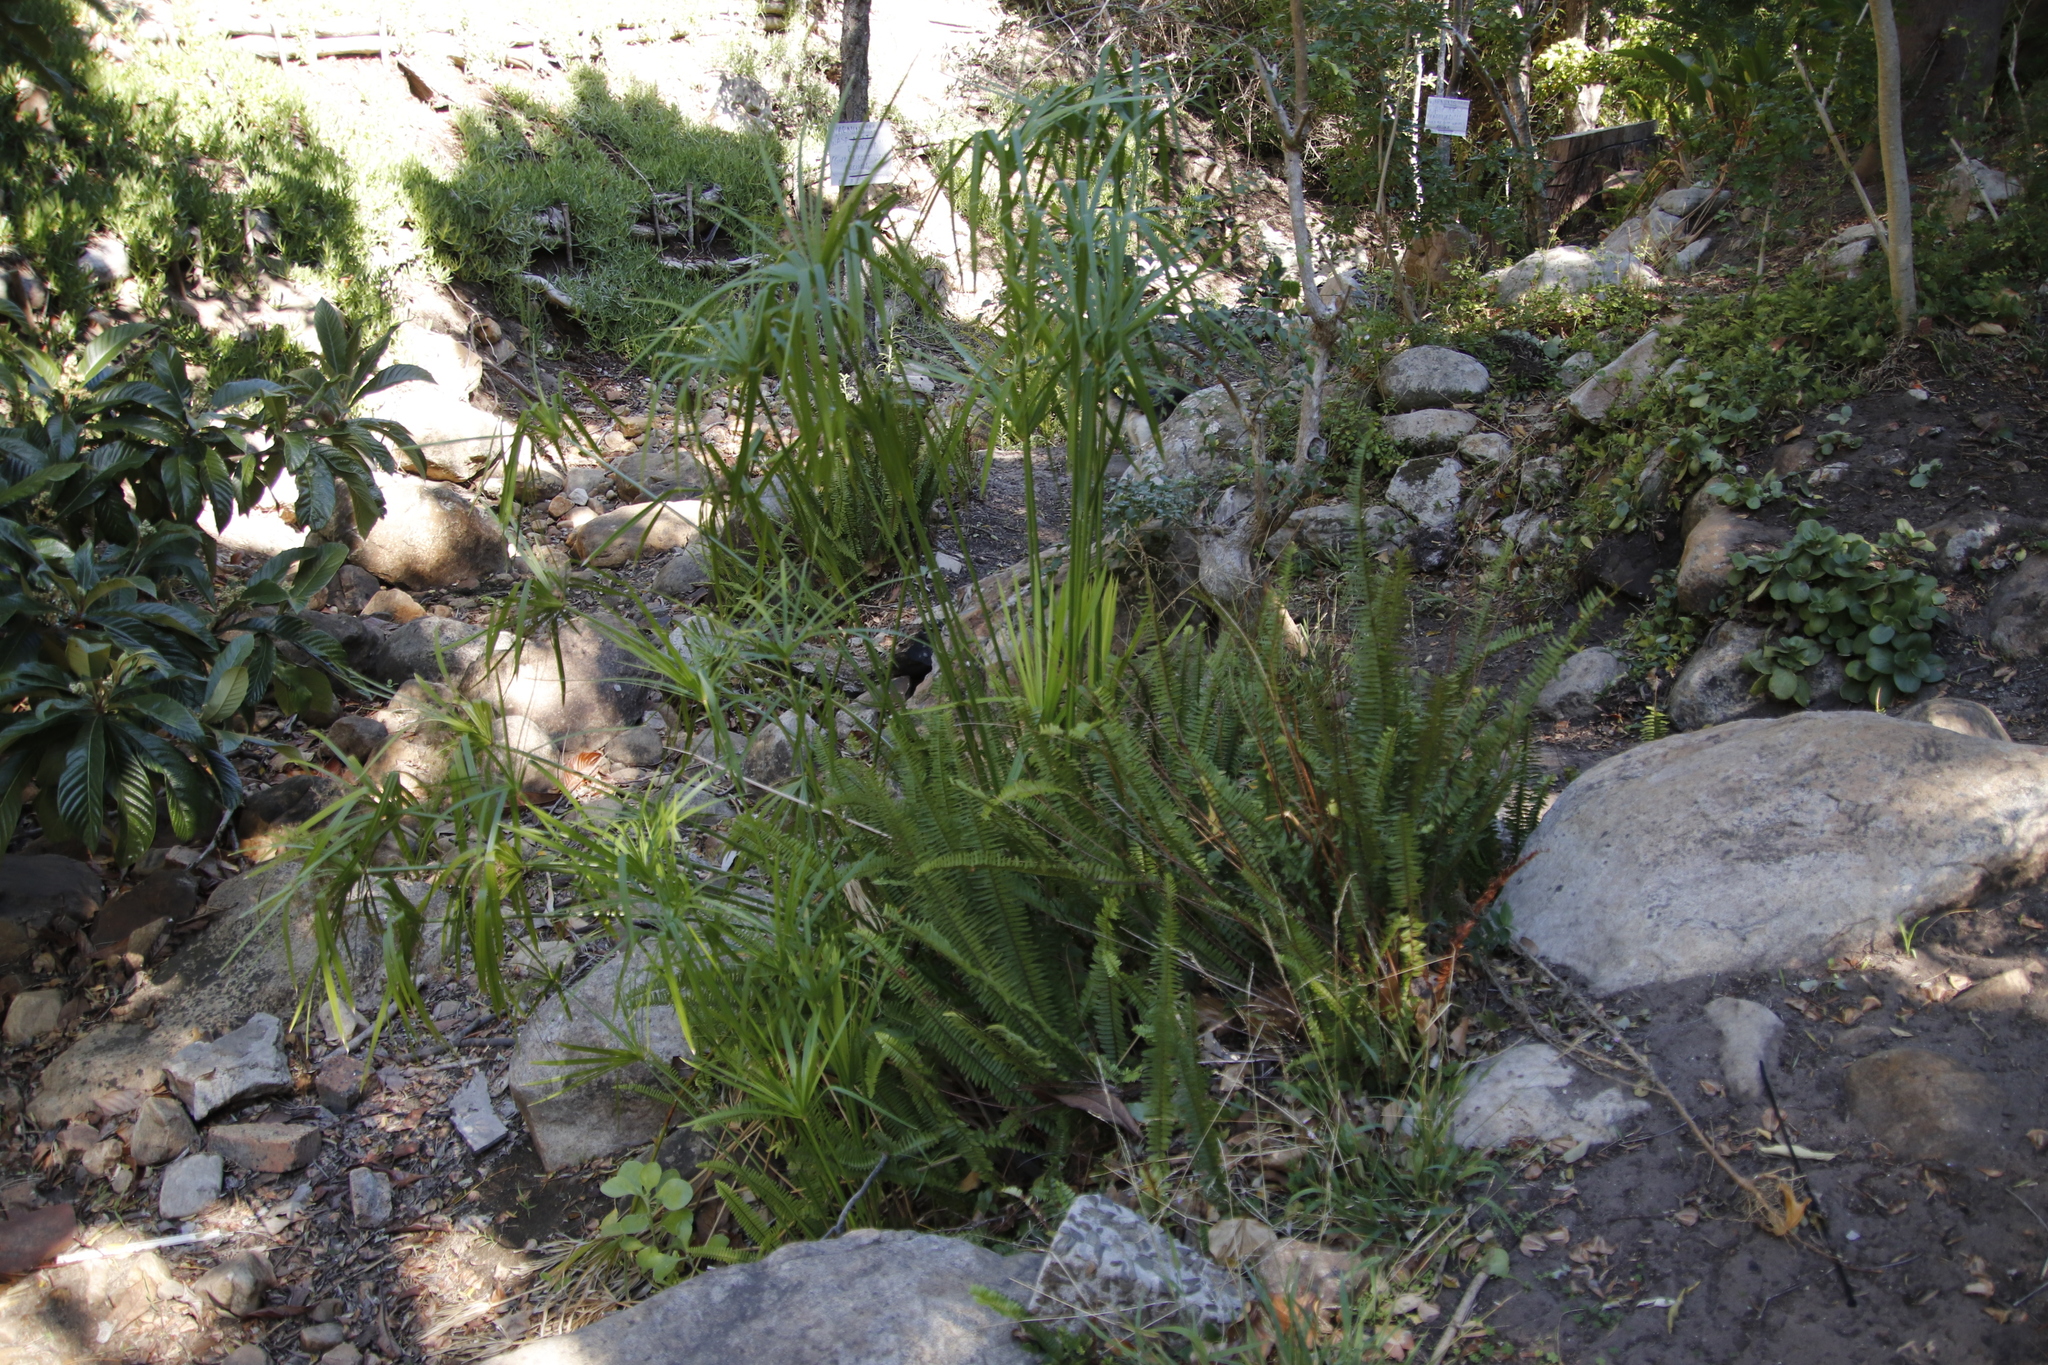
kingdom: Plantae
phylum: Tracheophyta
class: Liliopsida
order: Poales
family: Cyperaceae
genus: Cyperus
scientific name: Cyperus textilis
